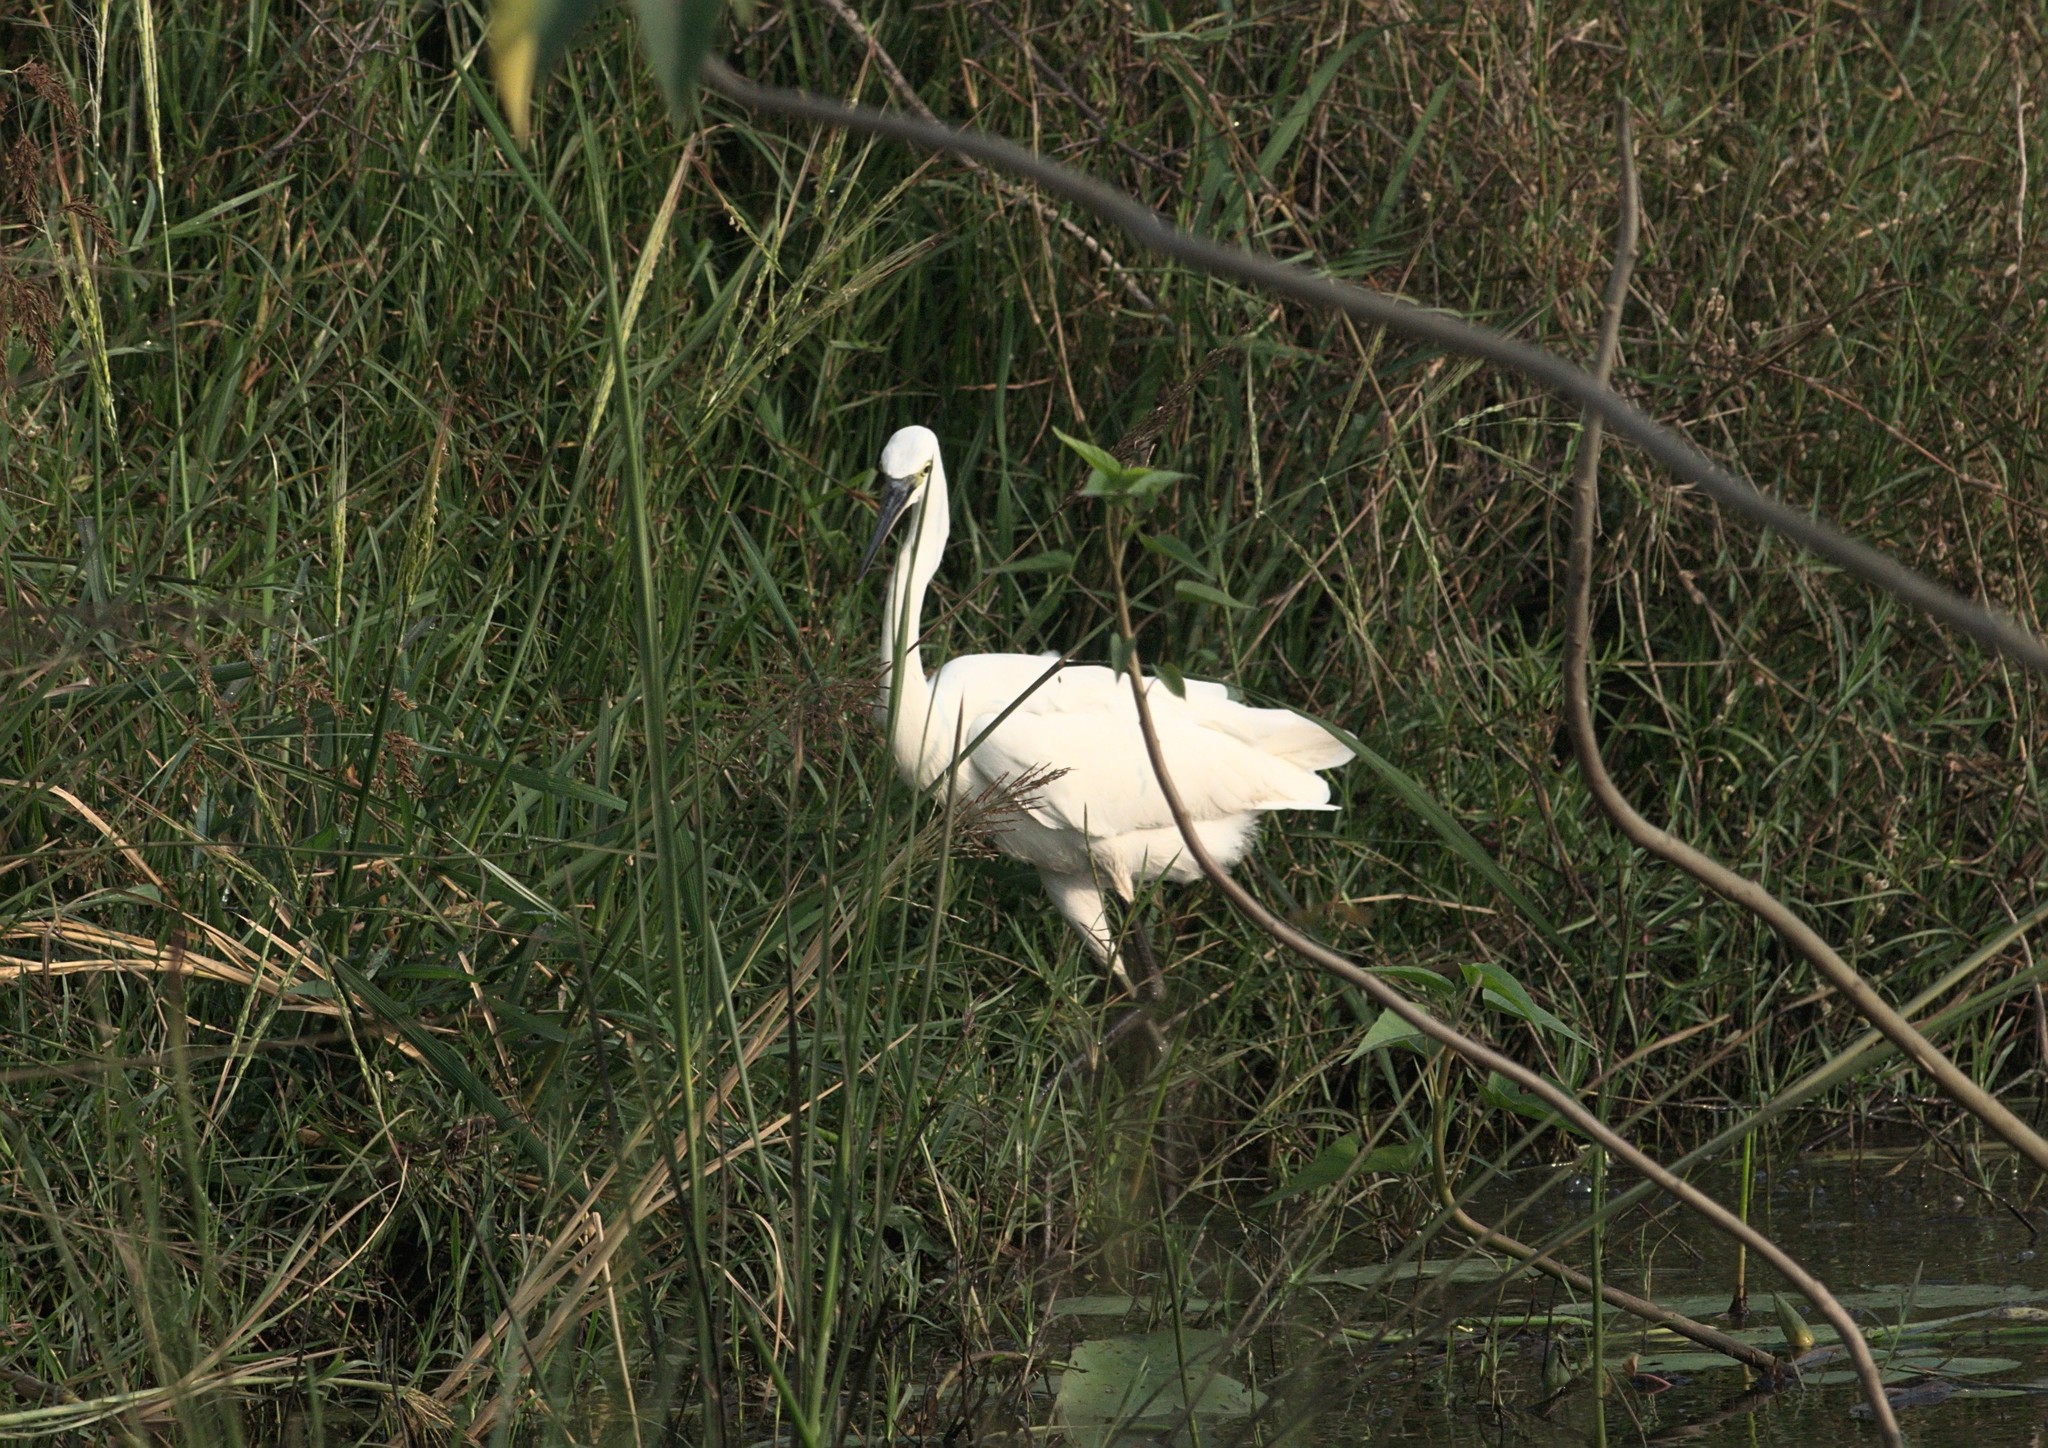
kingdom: Animalia
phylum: Chordata
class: Aves
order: Pelecaniformes
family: Ardeidae
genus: Egretta
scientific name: Egretta garzetta
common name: Little egret
